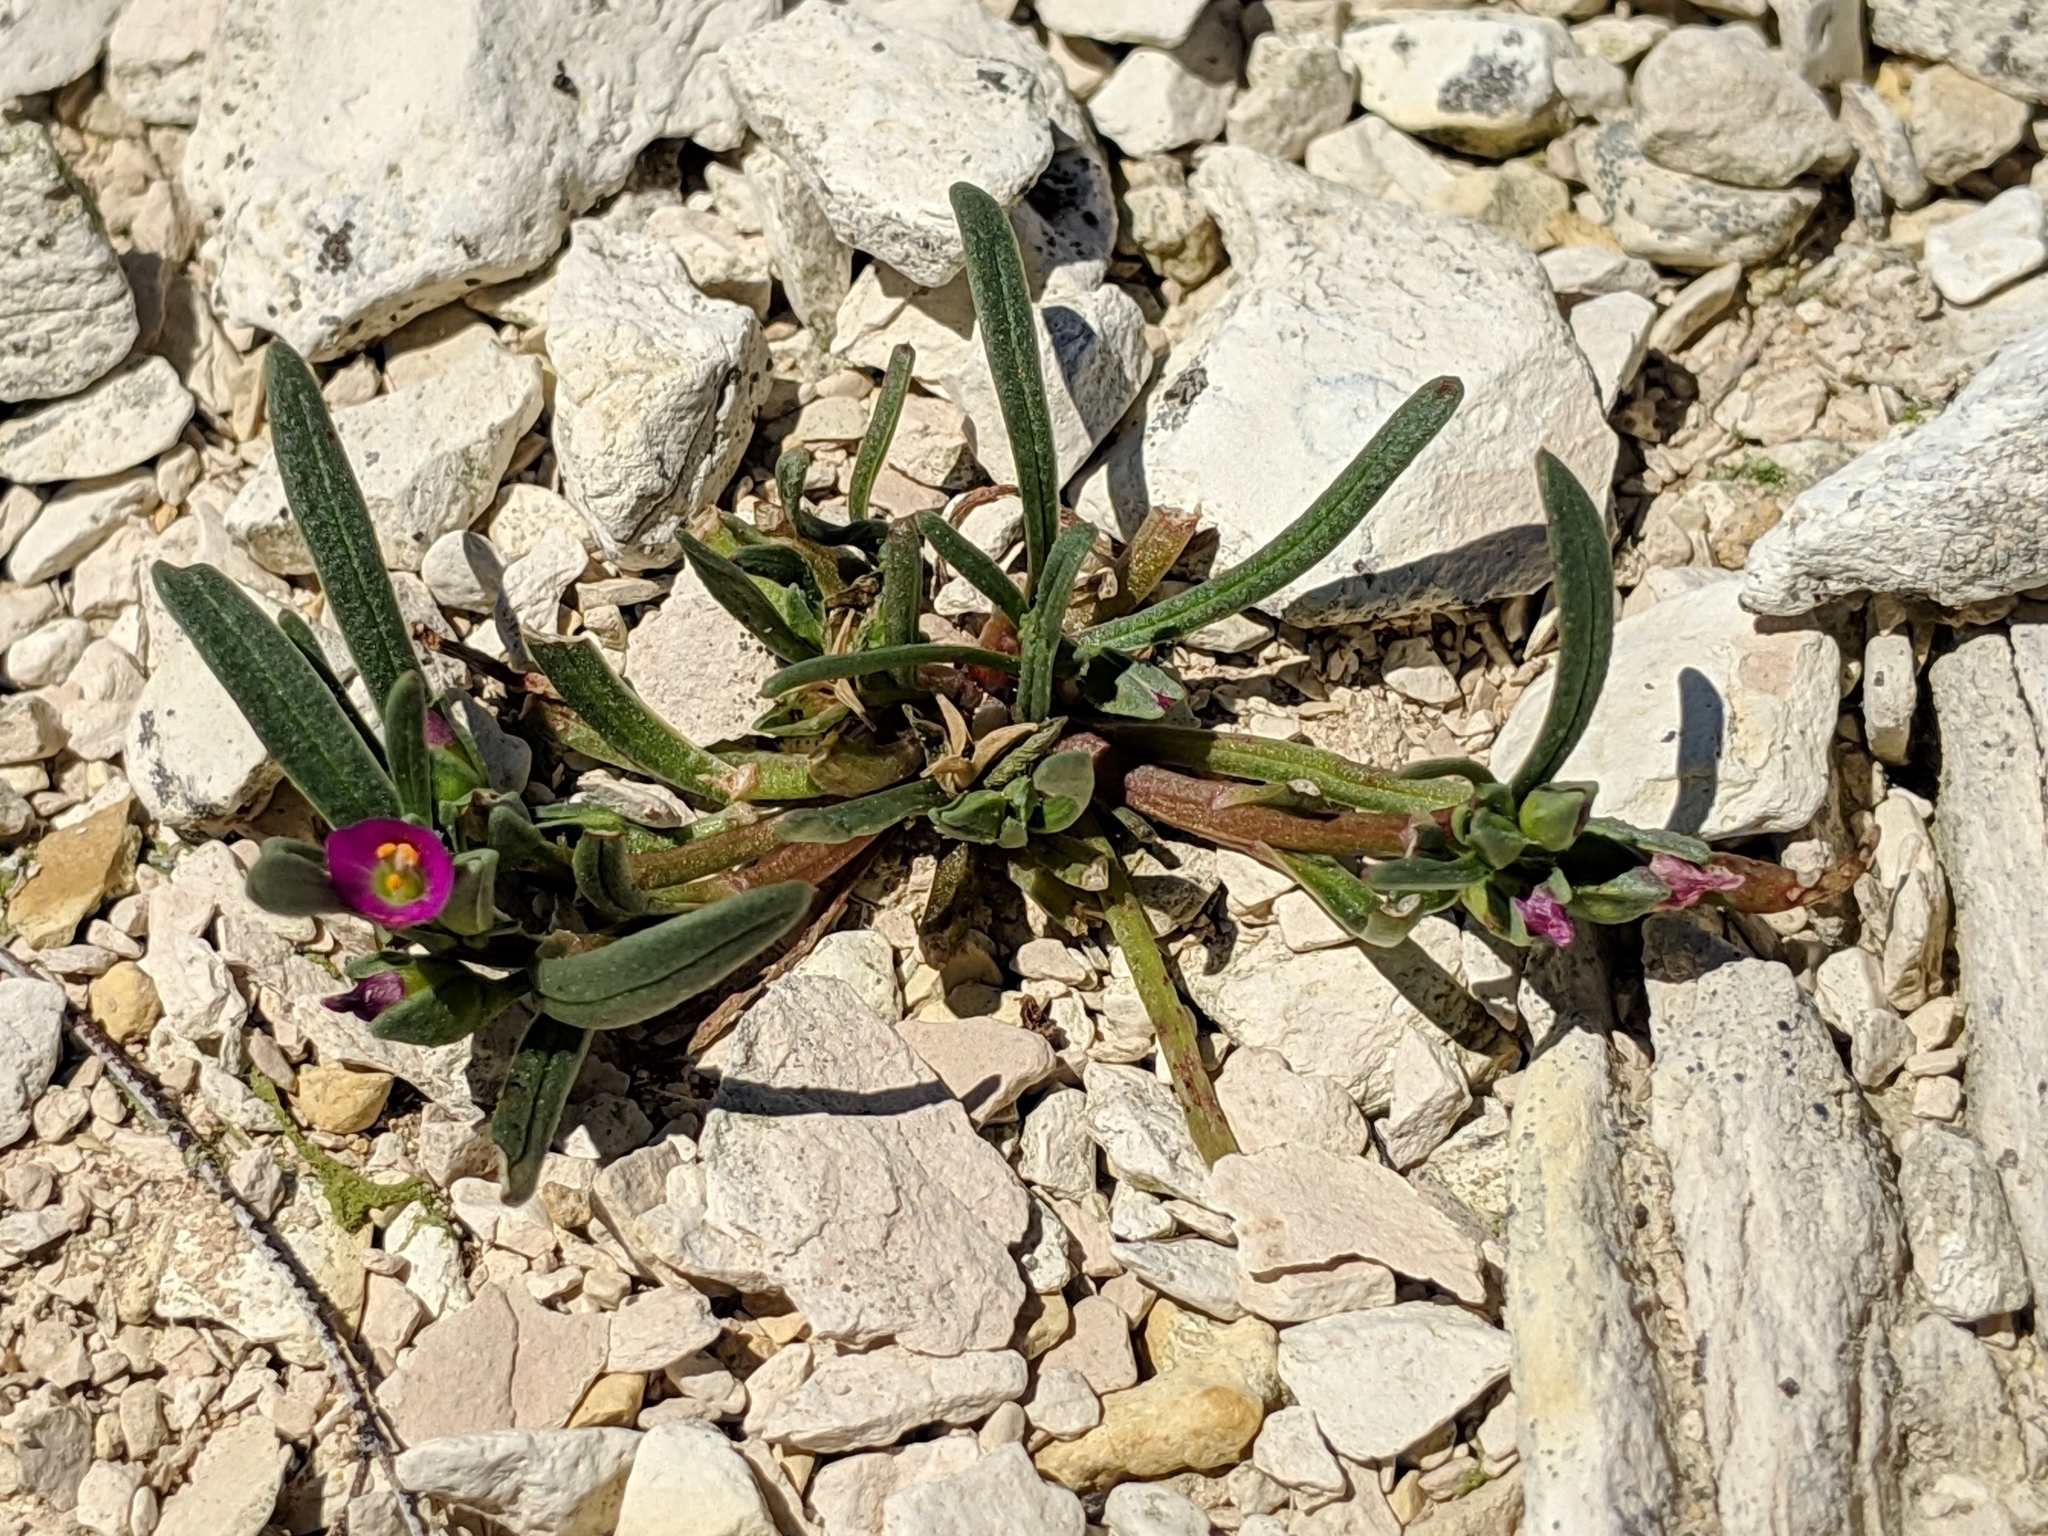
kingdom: Plantae
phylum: Tracheophyta
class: Magnoliopsida
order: Caryophyllales
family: Montiaceae
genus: Calandrinia
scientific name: Calandrinia menziesii
